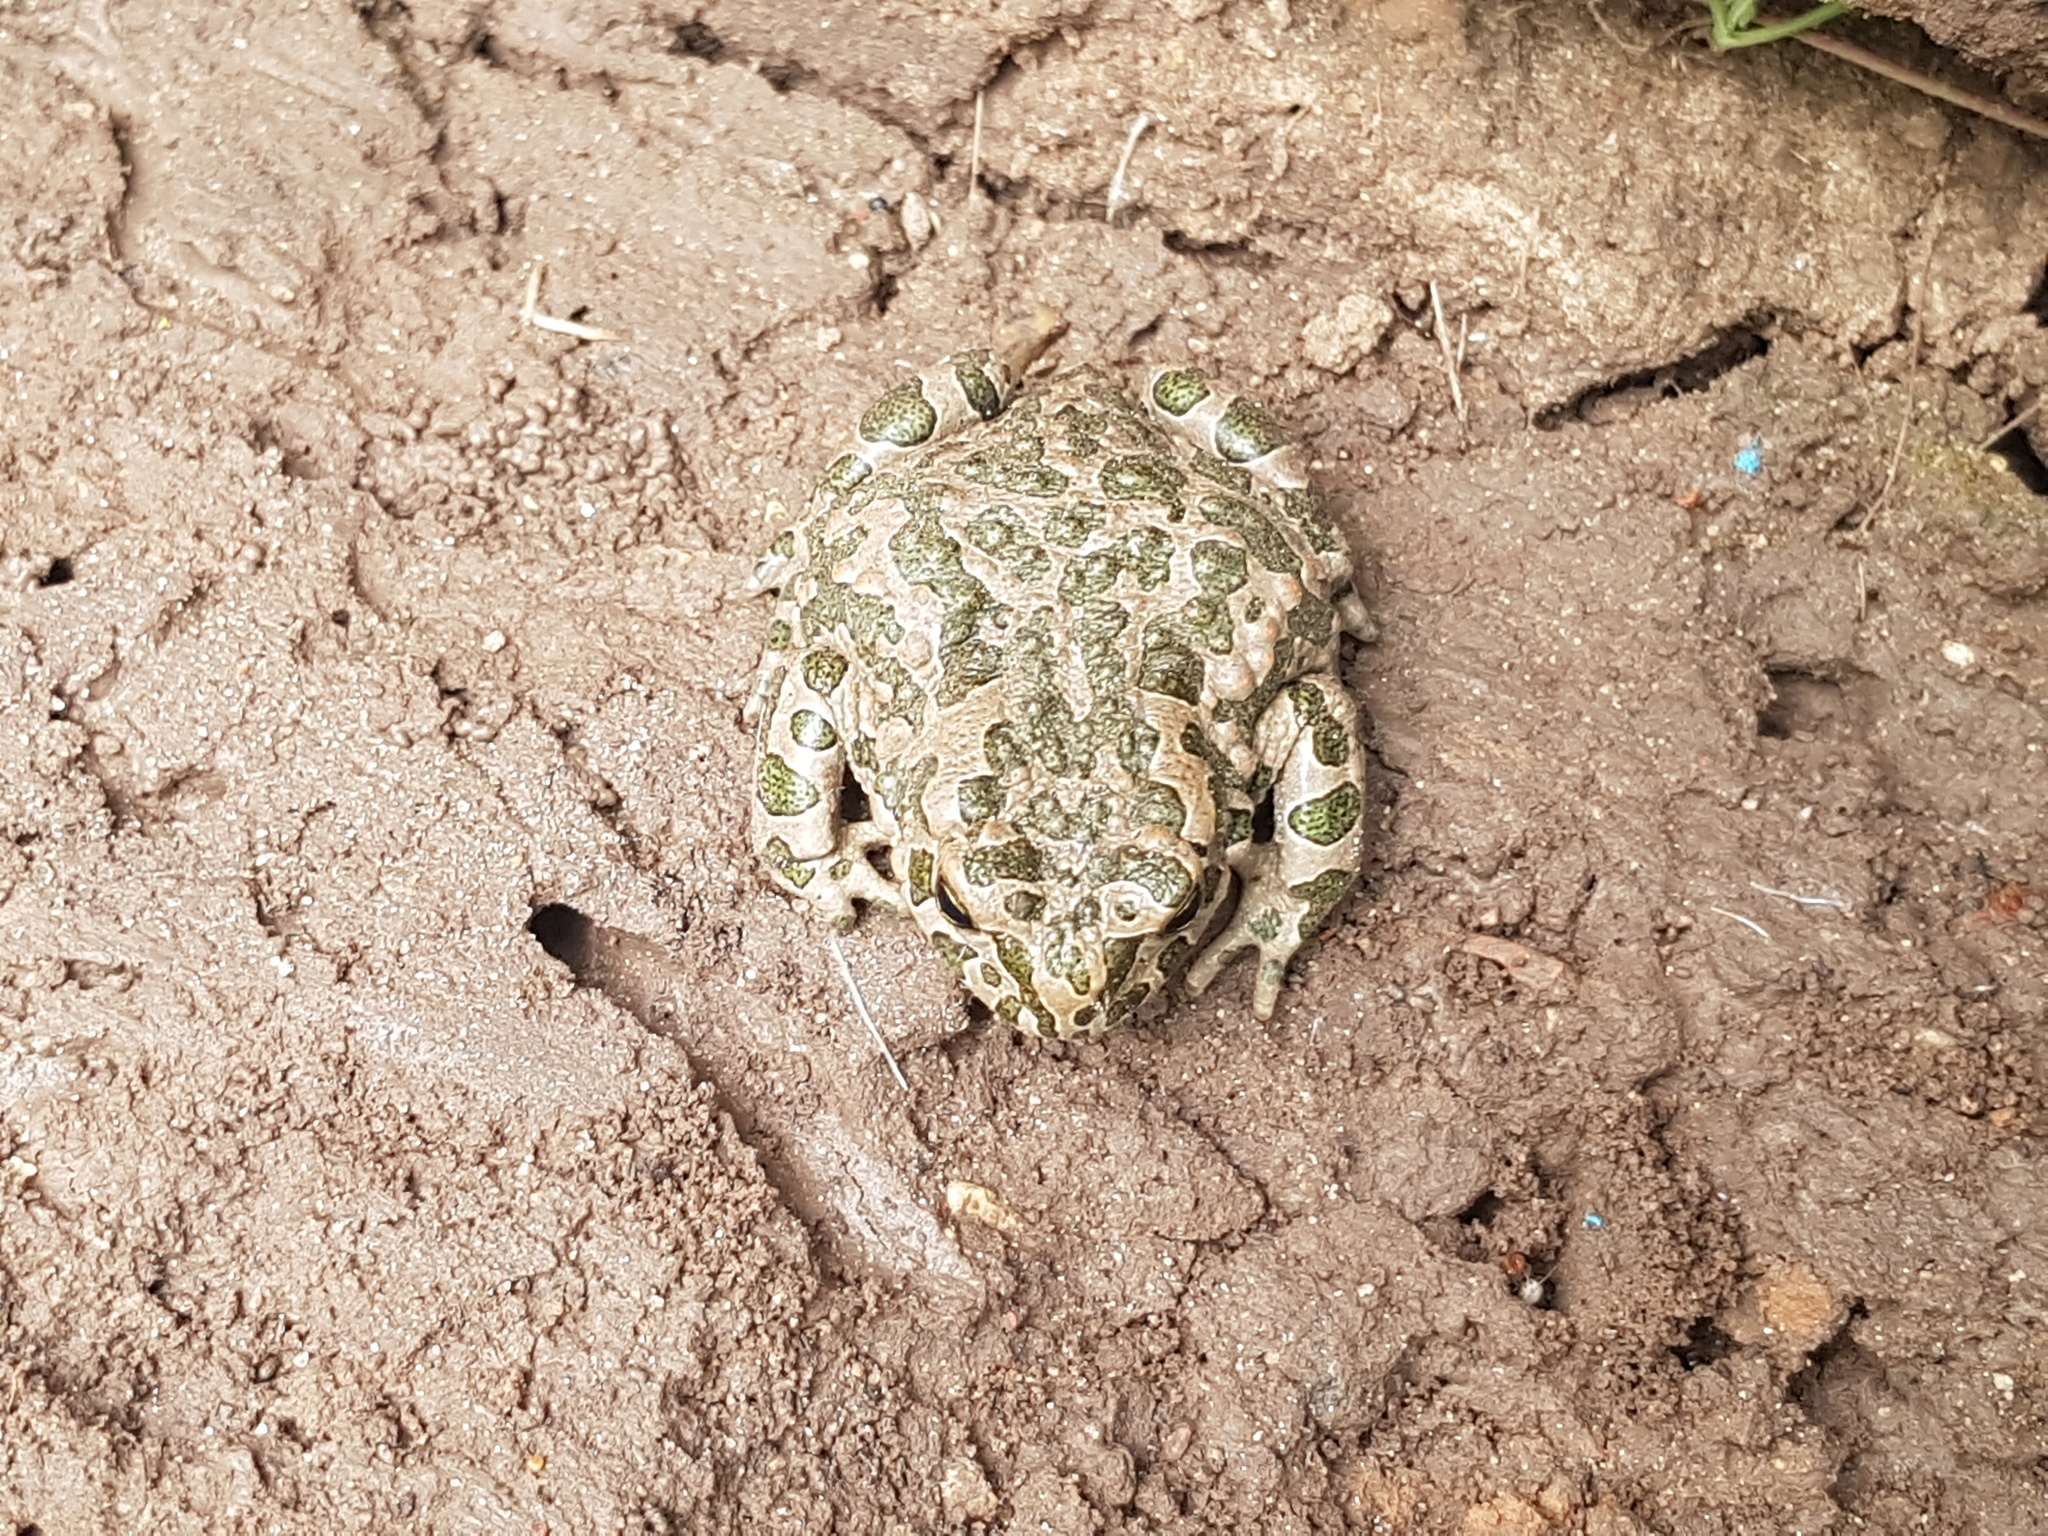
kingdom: Animalia
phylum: Chordata
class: Amphibia
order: Anura
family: Bufonidae
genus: Bufotes
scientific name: Bufotes viridis
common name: European green toad
